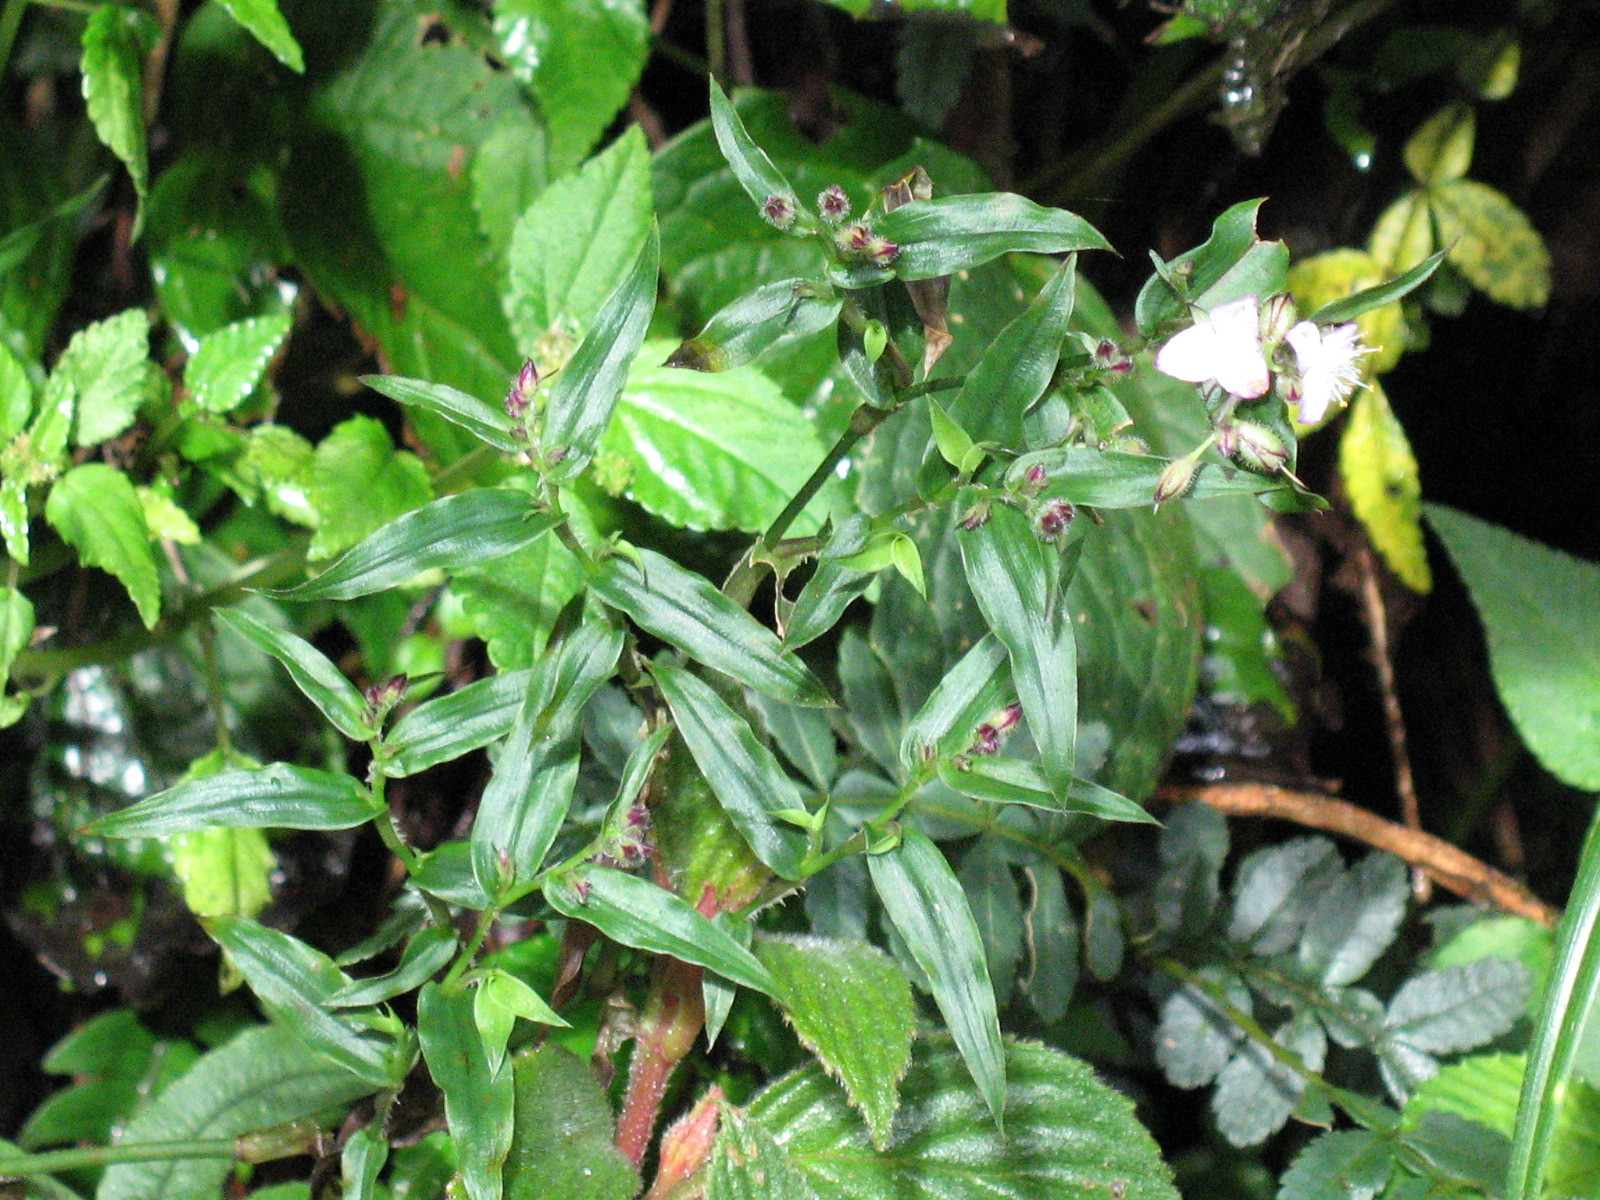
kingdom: Plantae
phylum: Tracheophyta
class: Liliopsida
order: Commelinales
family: Commelinaceae
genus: Elasis
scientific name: Elasis hirsuta
